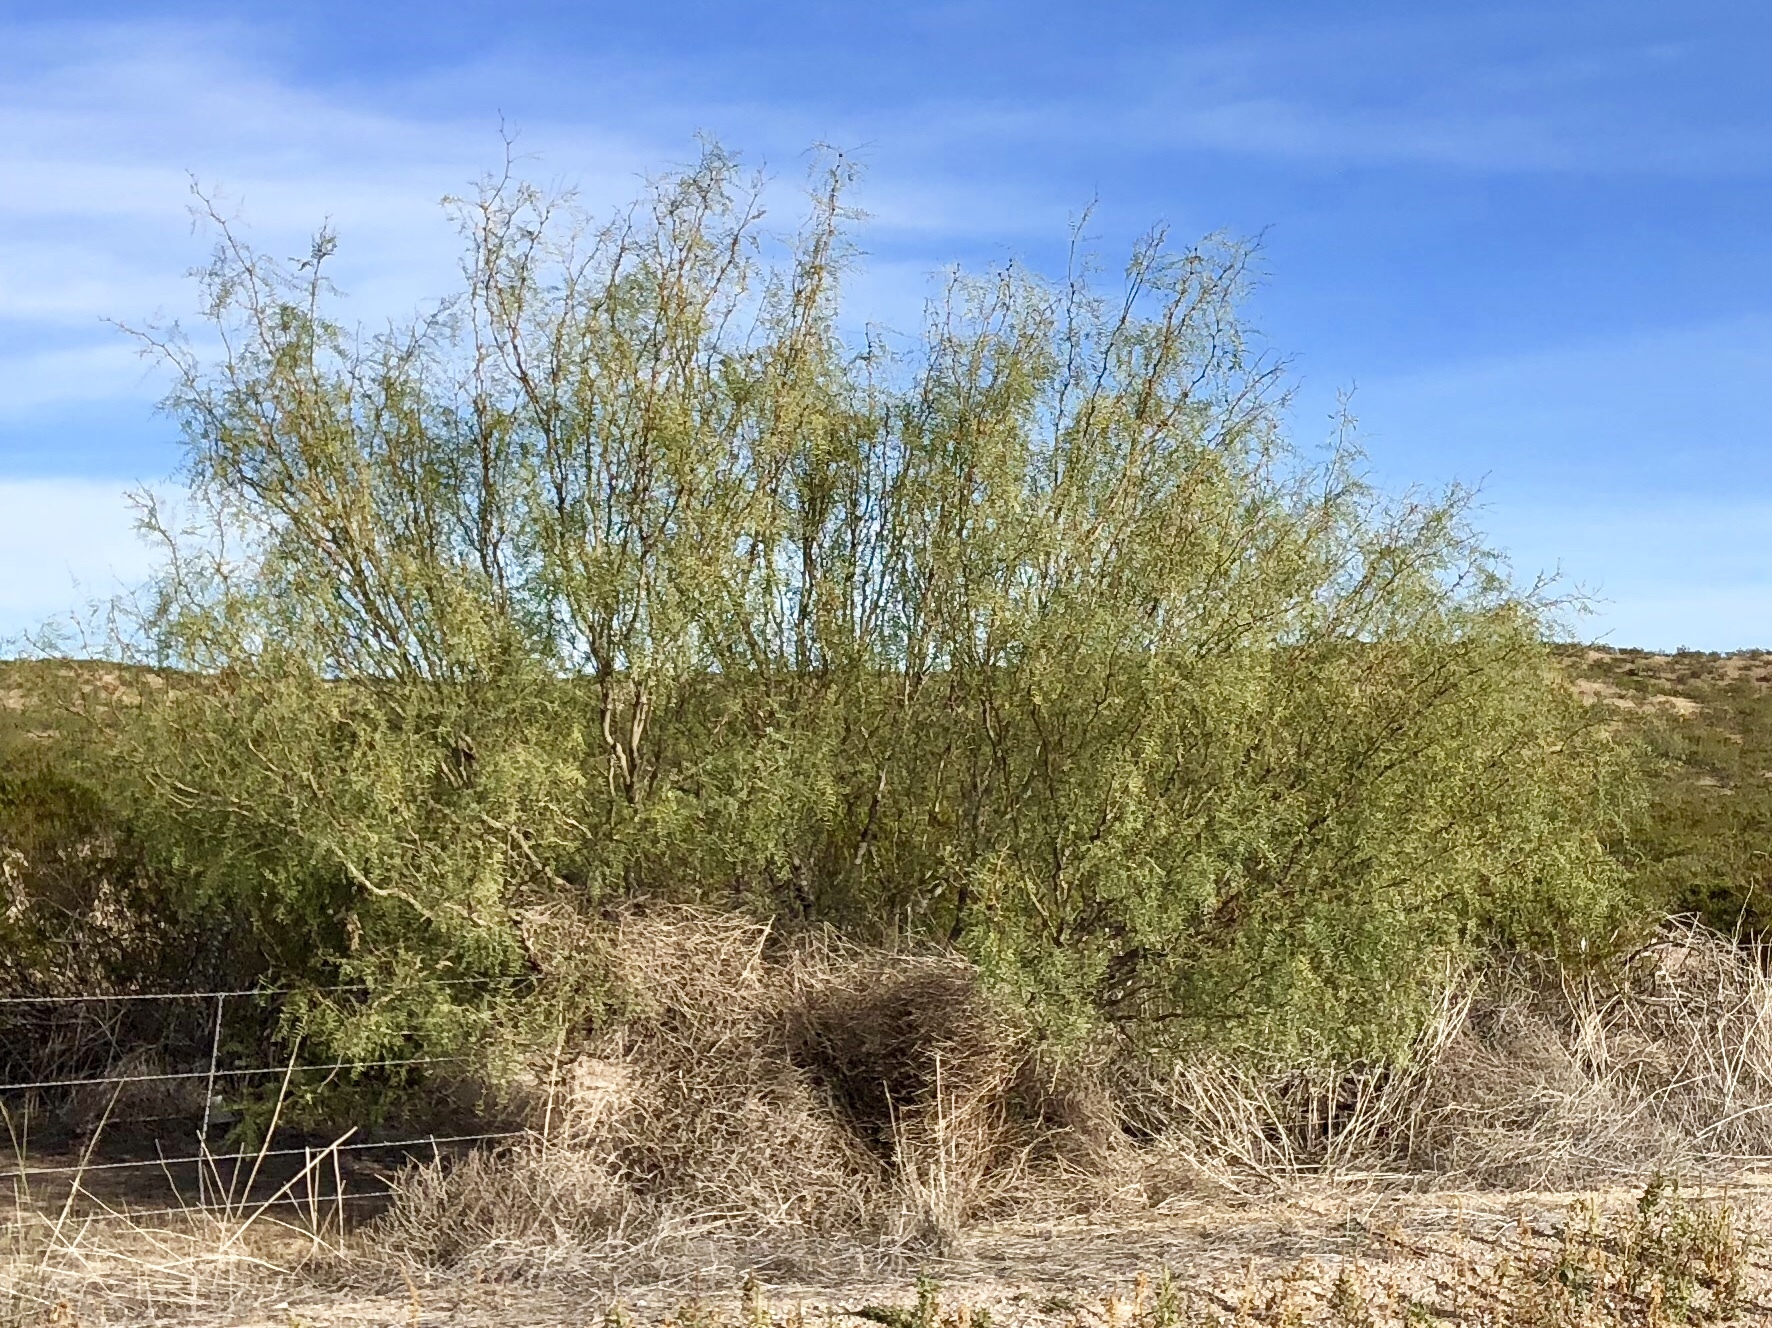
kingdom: Plantae
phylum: Tracheophyta
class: Magnoliopsida
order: Fabales
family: Fabaceae
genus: Prosopis
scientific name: Prosopis glandulosa
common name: Honey mesquite
